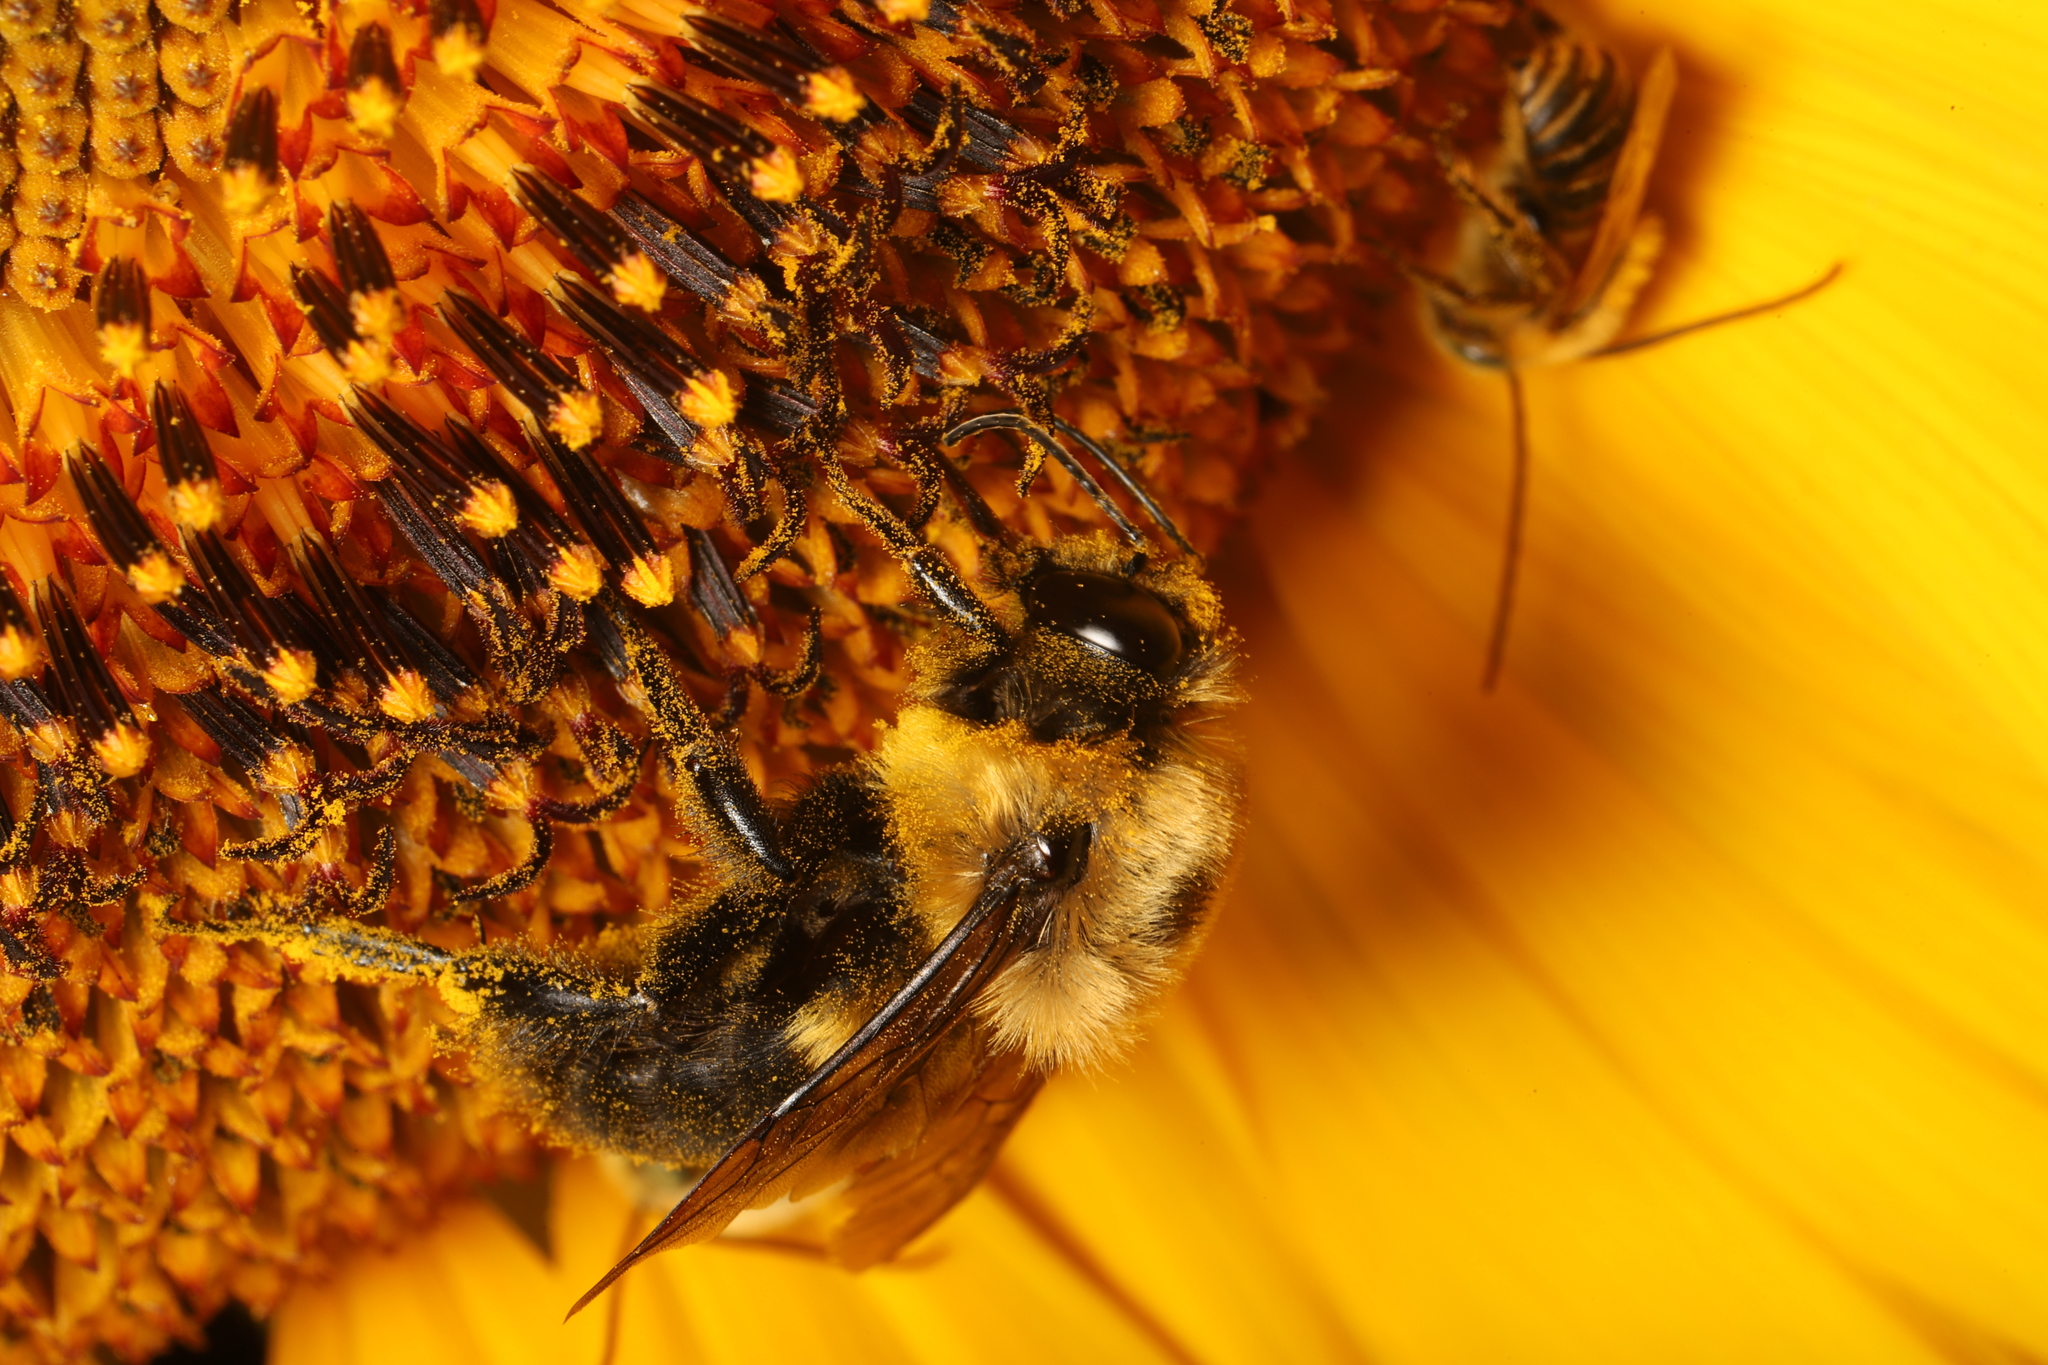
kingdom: Animalia
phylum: Arthropoda
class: Insecta
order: Hymenoptera
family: Apidae
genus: Bombus
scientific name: Bombus griseocollis
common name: Brown-belted bumble bee
